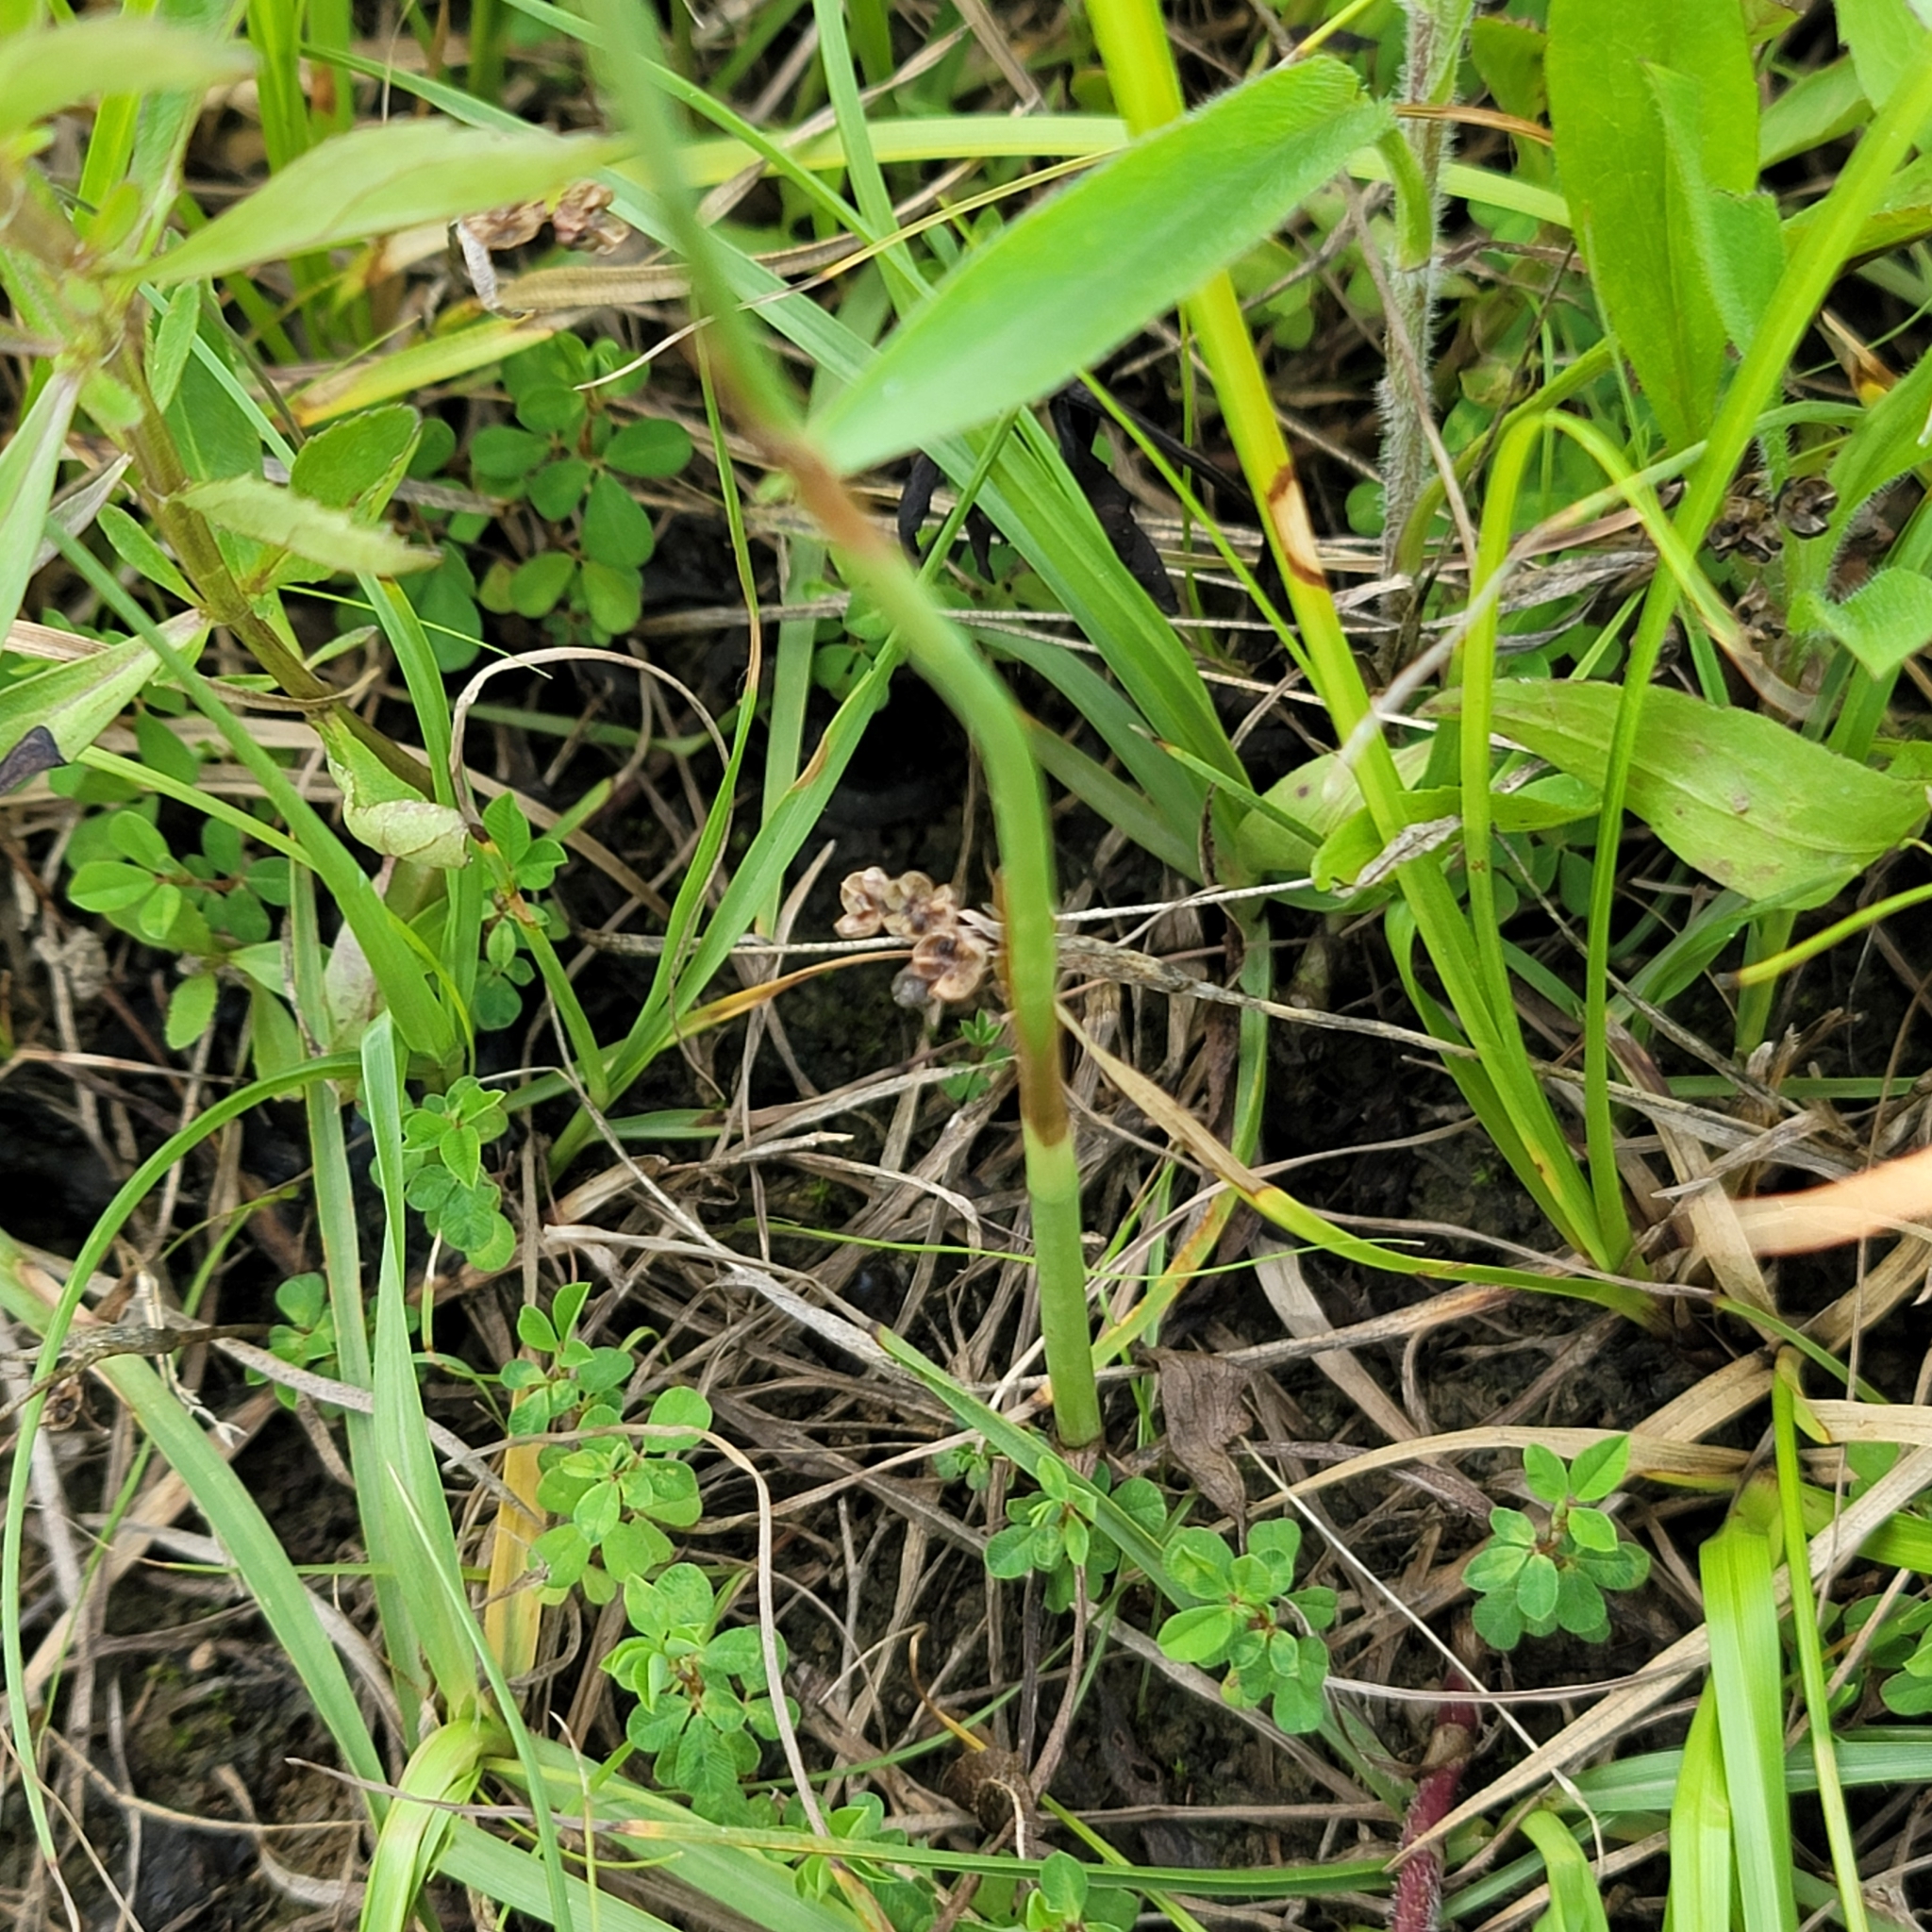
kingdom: Plantae
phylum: Tracheophyta
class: Liliopsida
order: Asparagales
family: Orchidaceae
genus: Spiranthes
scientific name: Spiranthes vernalis
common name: Spring ladies'-tresses
